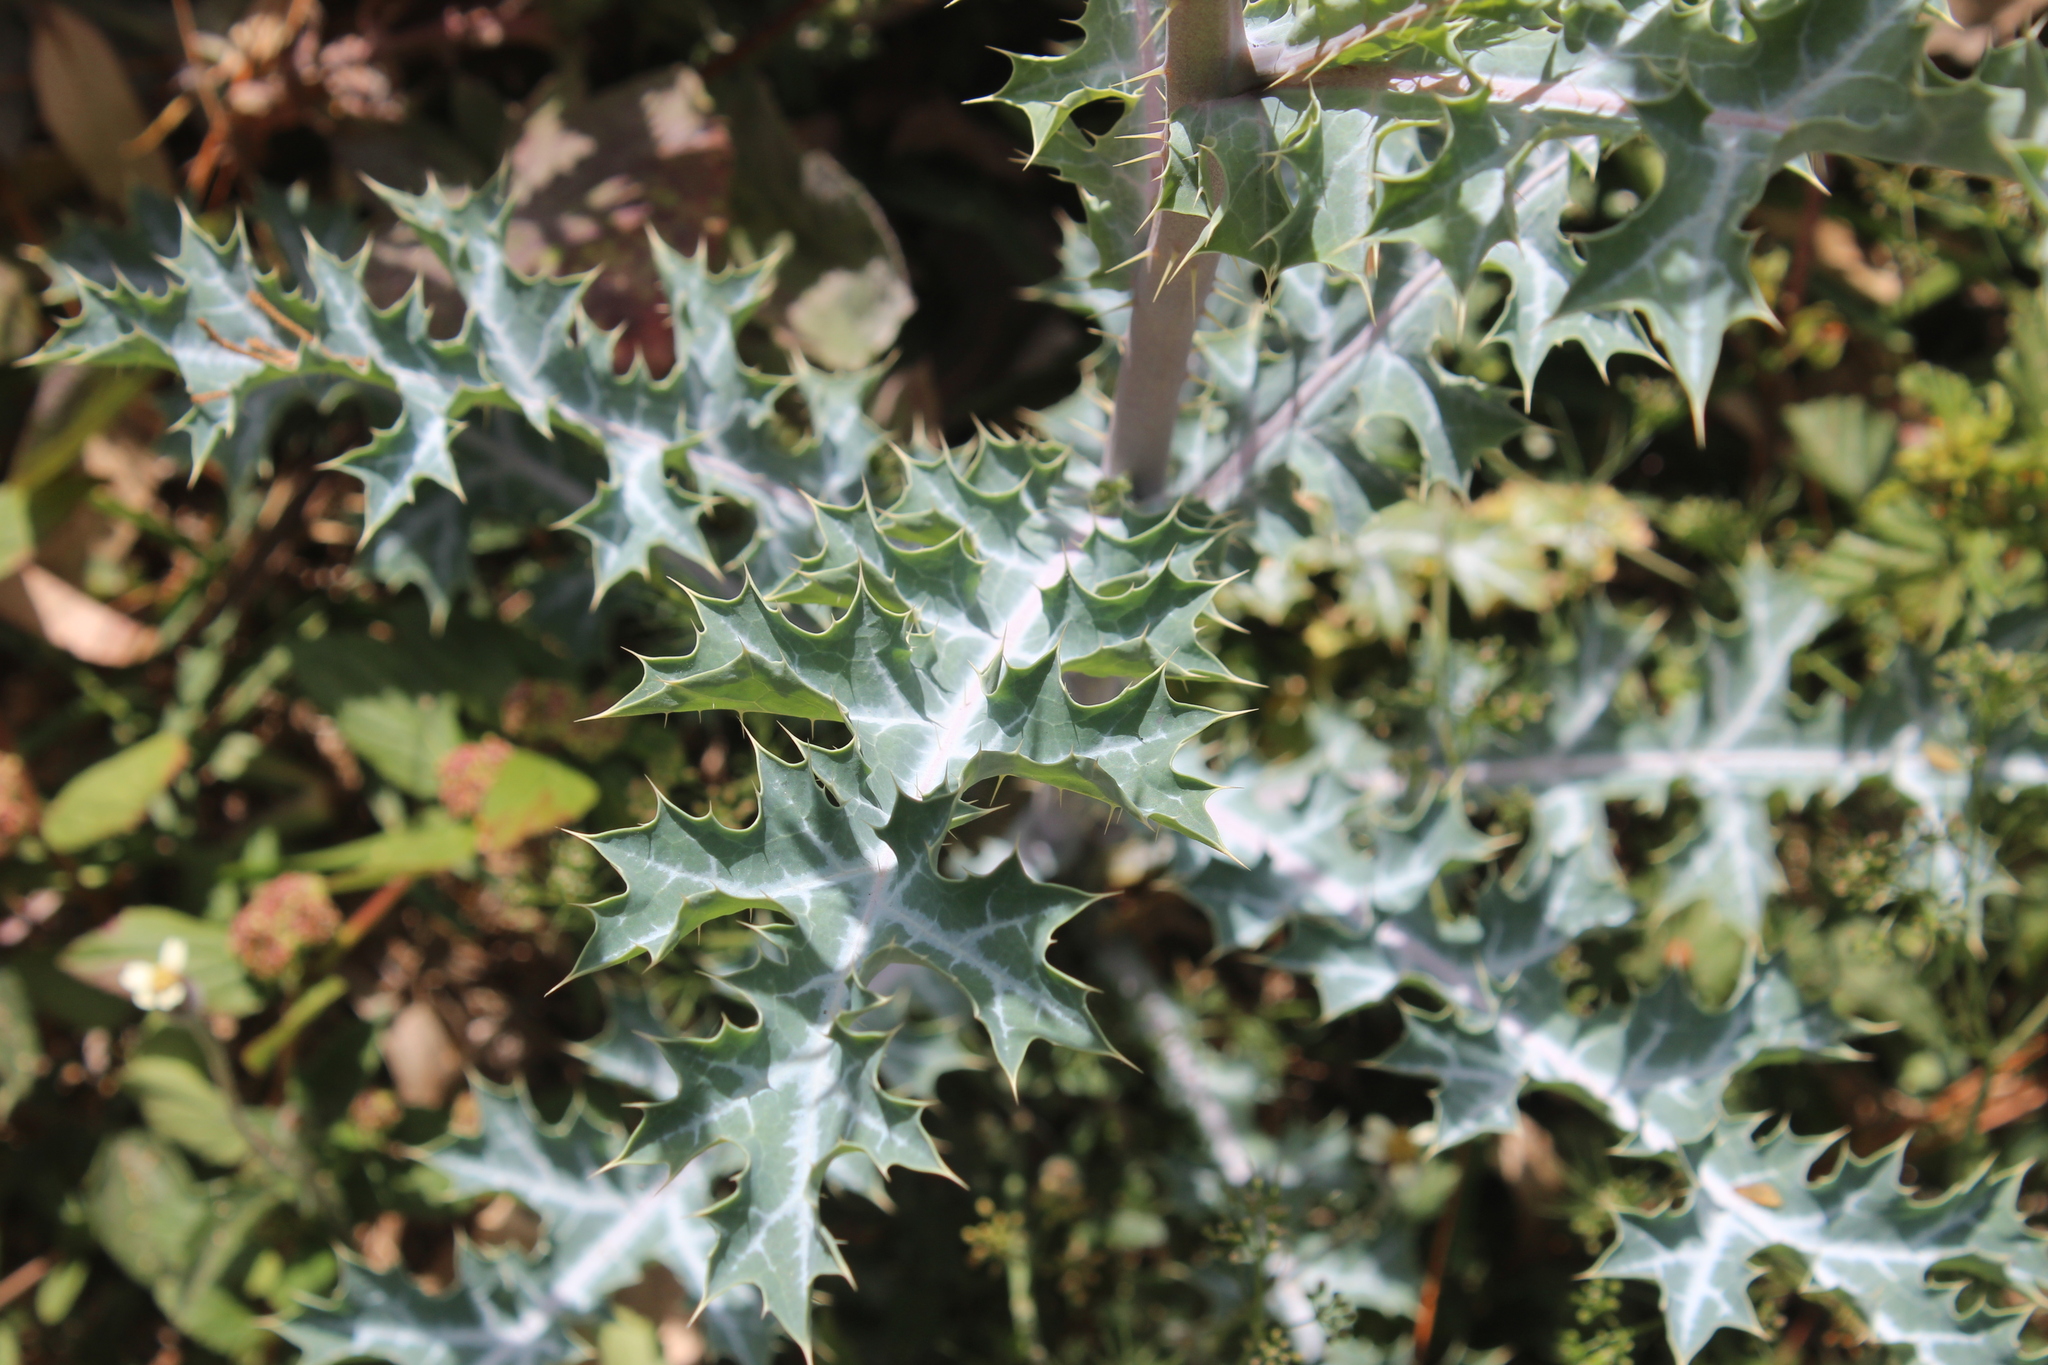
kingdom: Plantae
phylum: Tracheophyta
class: Magnoliopsida
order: Ranunculales
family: Papaveraceae
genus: Argemone
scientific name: Argemone ochroleuca
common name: White-flower mexican-poppy
